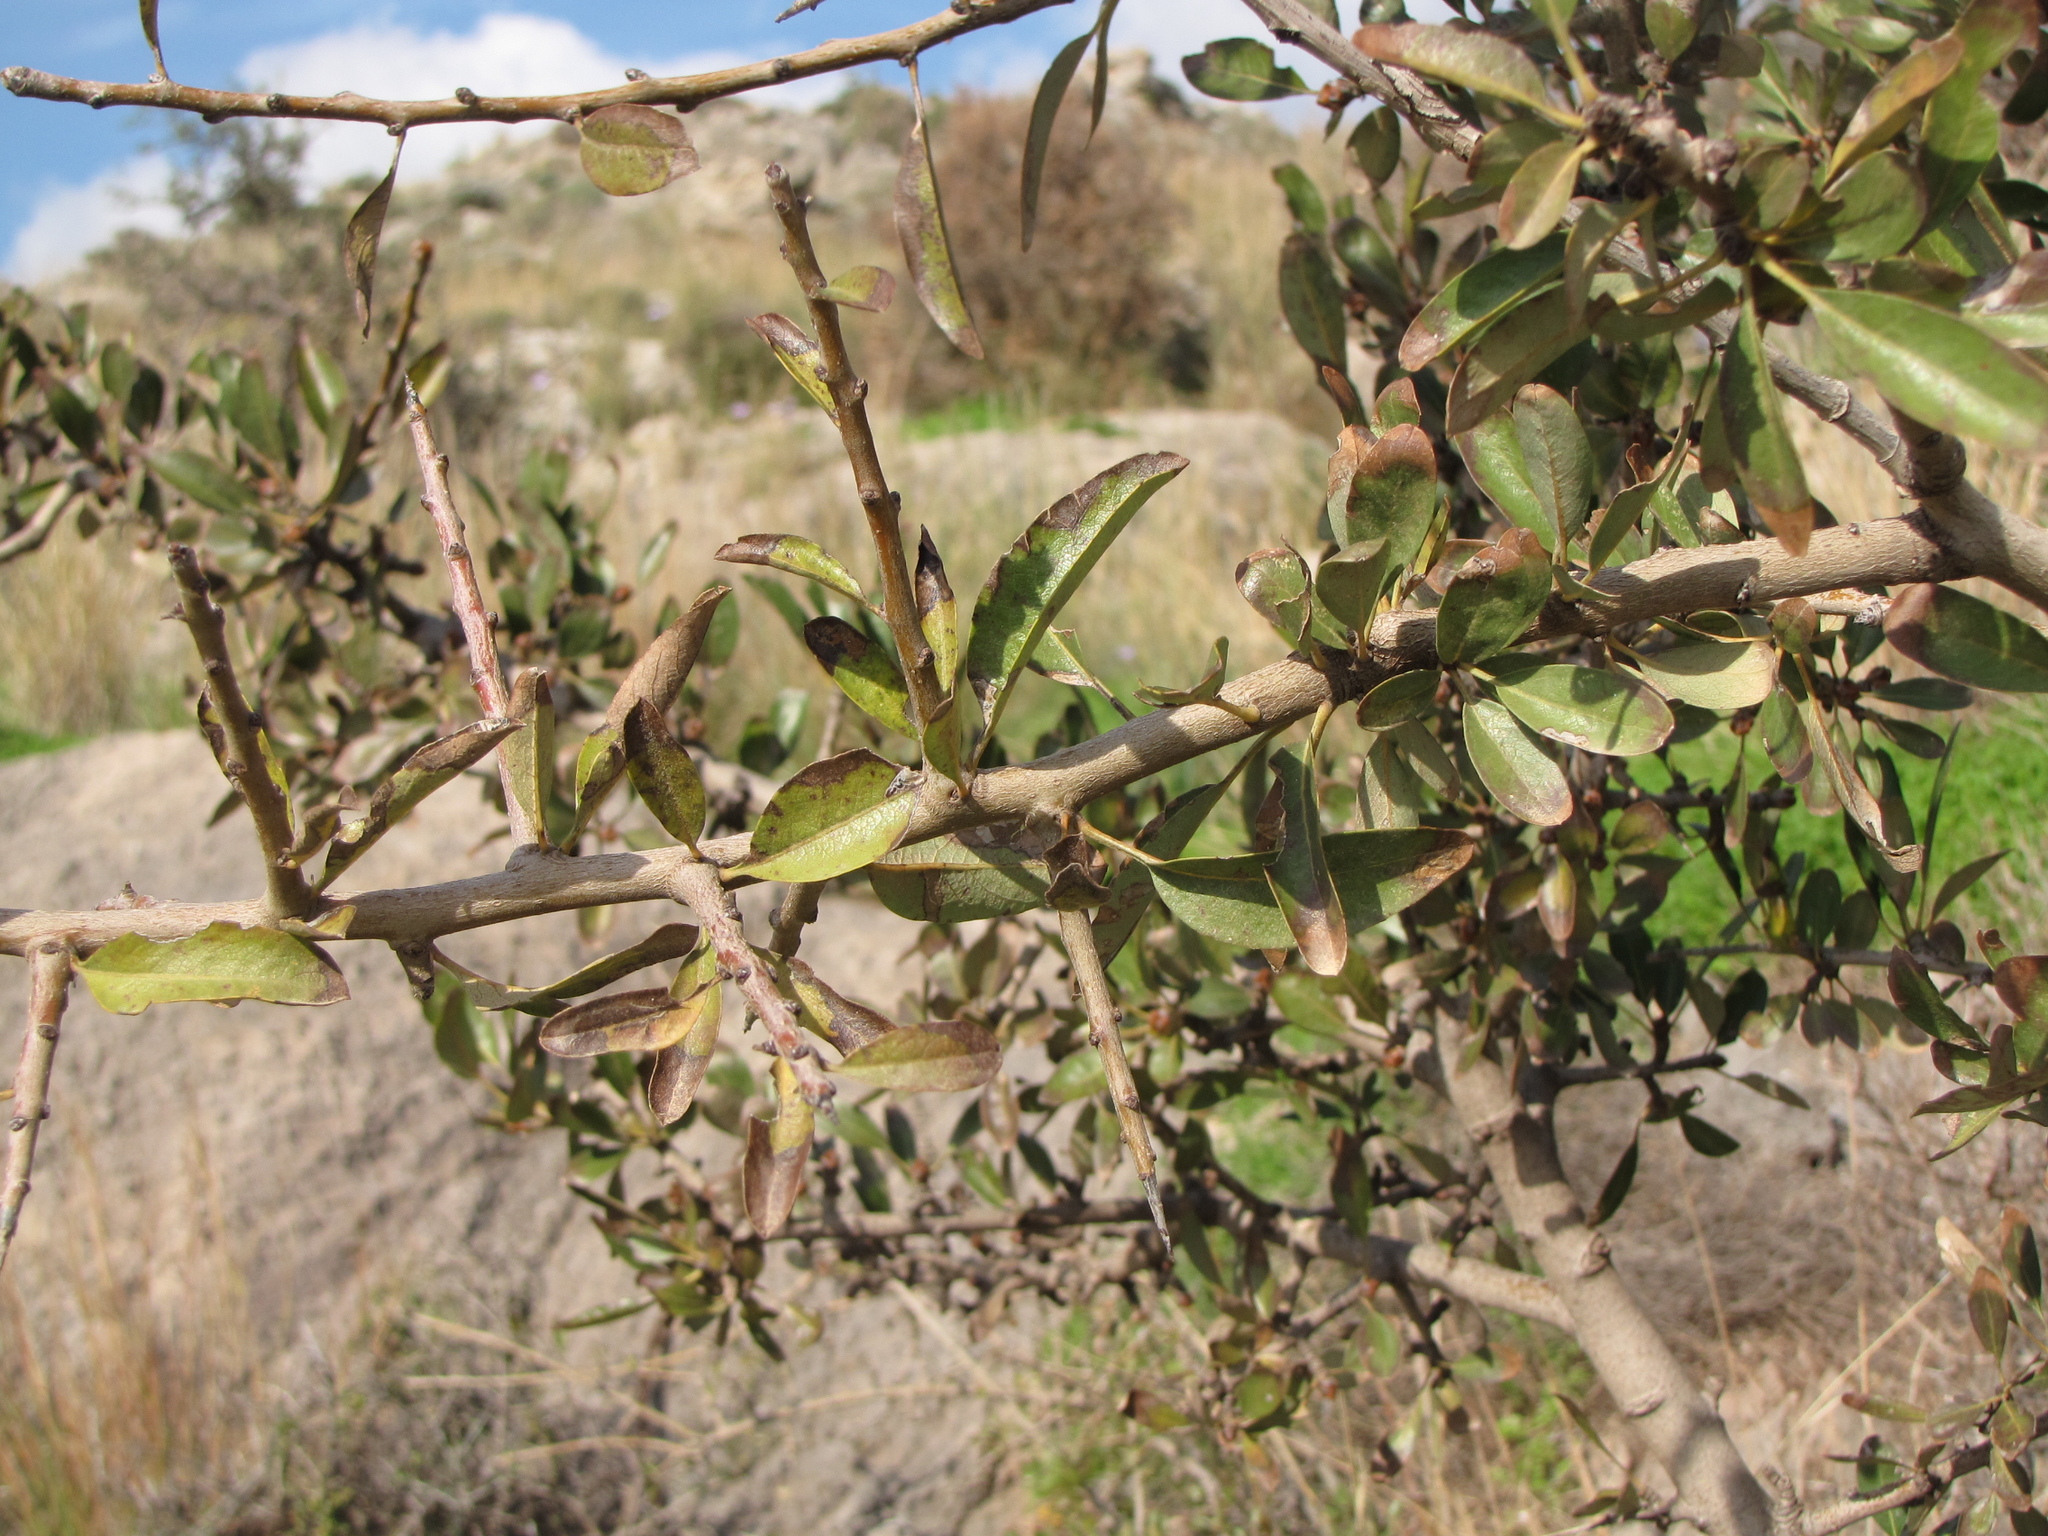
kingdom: Plantae
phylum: Tracheophyta
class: Magnoliopsida
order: Rosales
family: Rosaceae
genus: Pyrus
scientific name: Pyrus spinosa
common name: Almond-leaf pear
